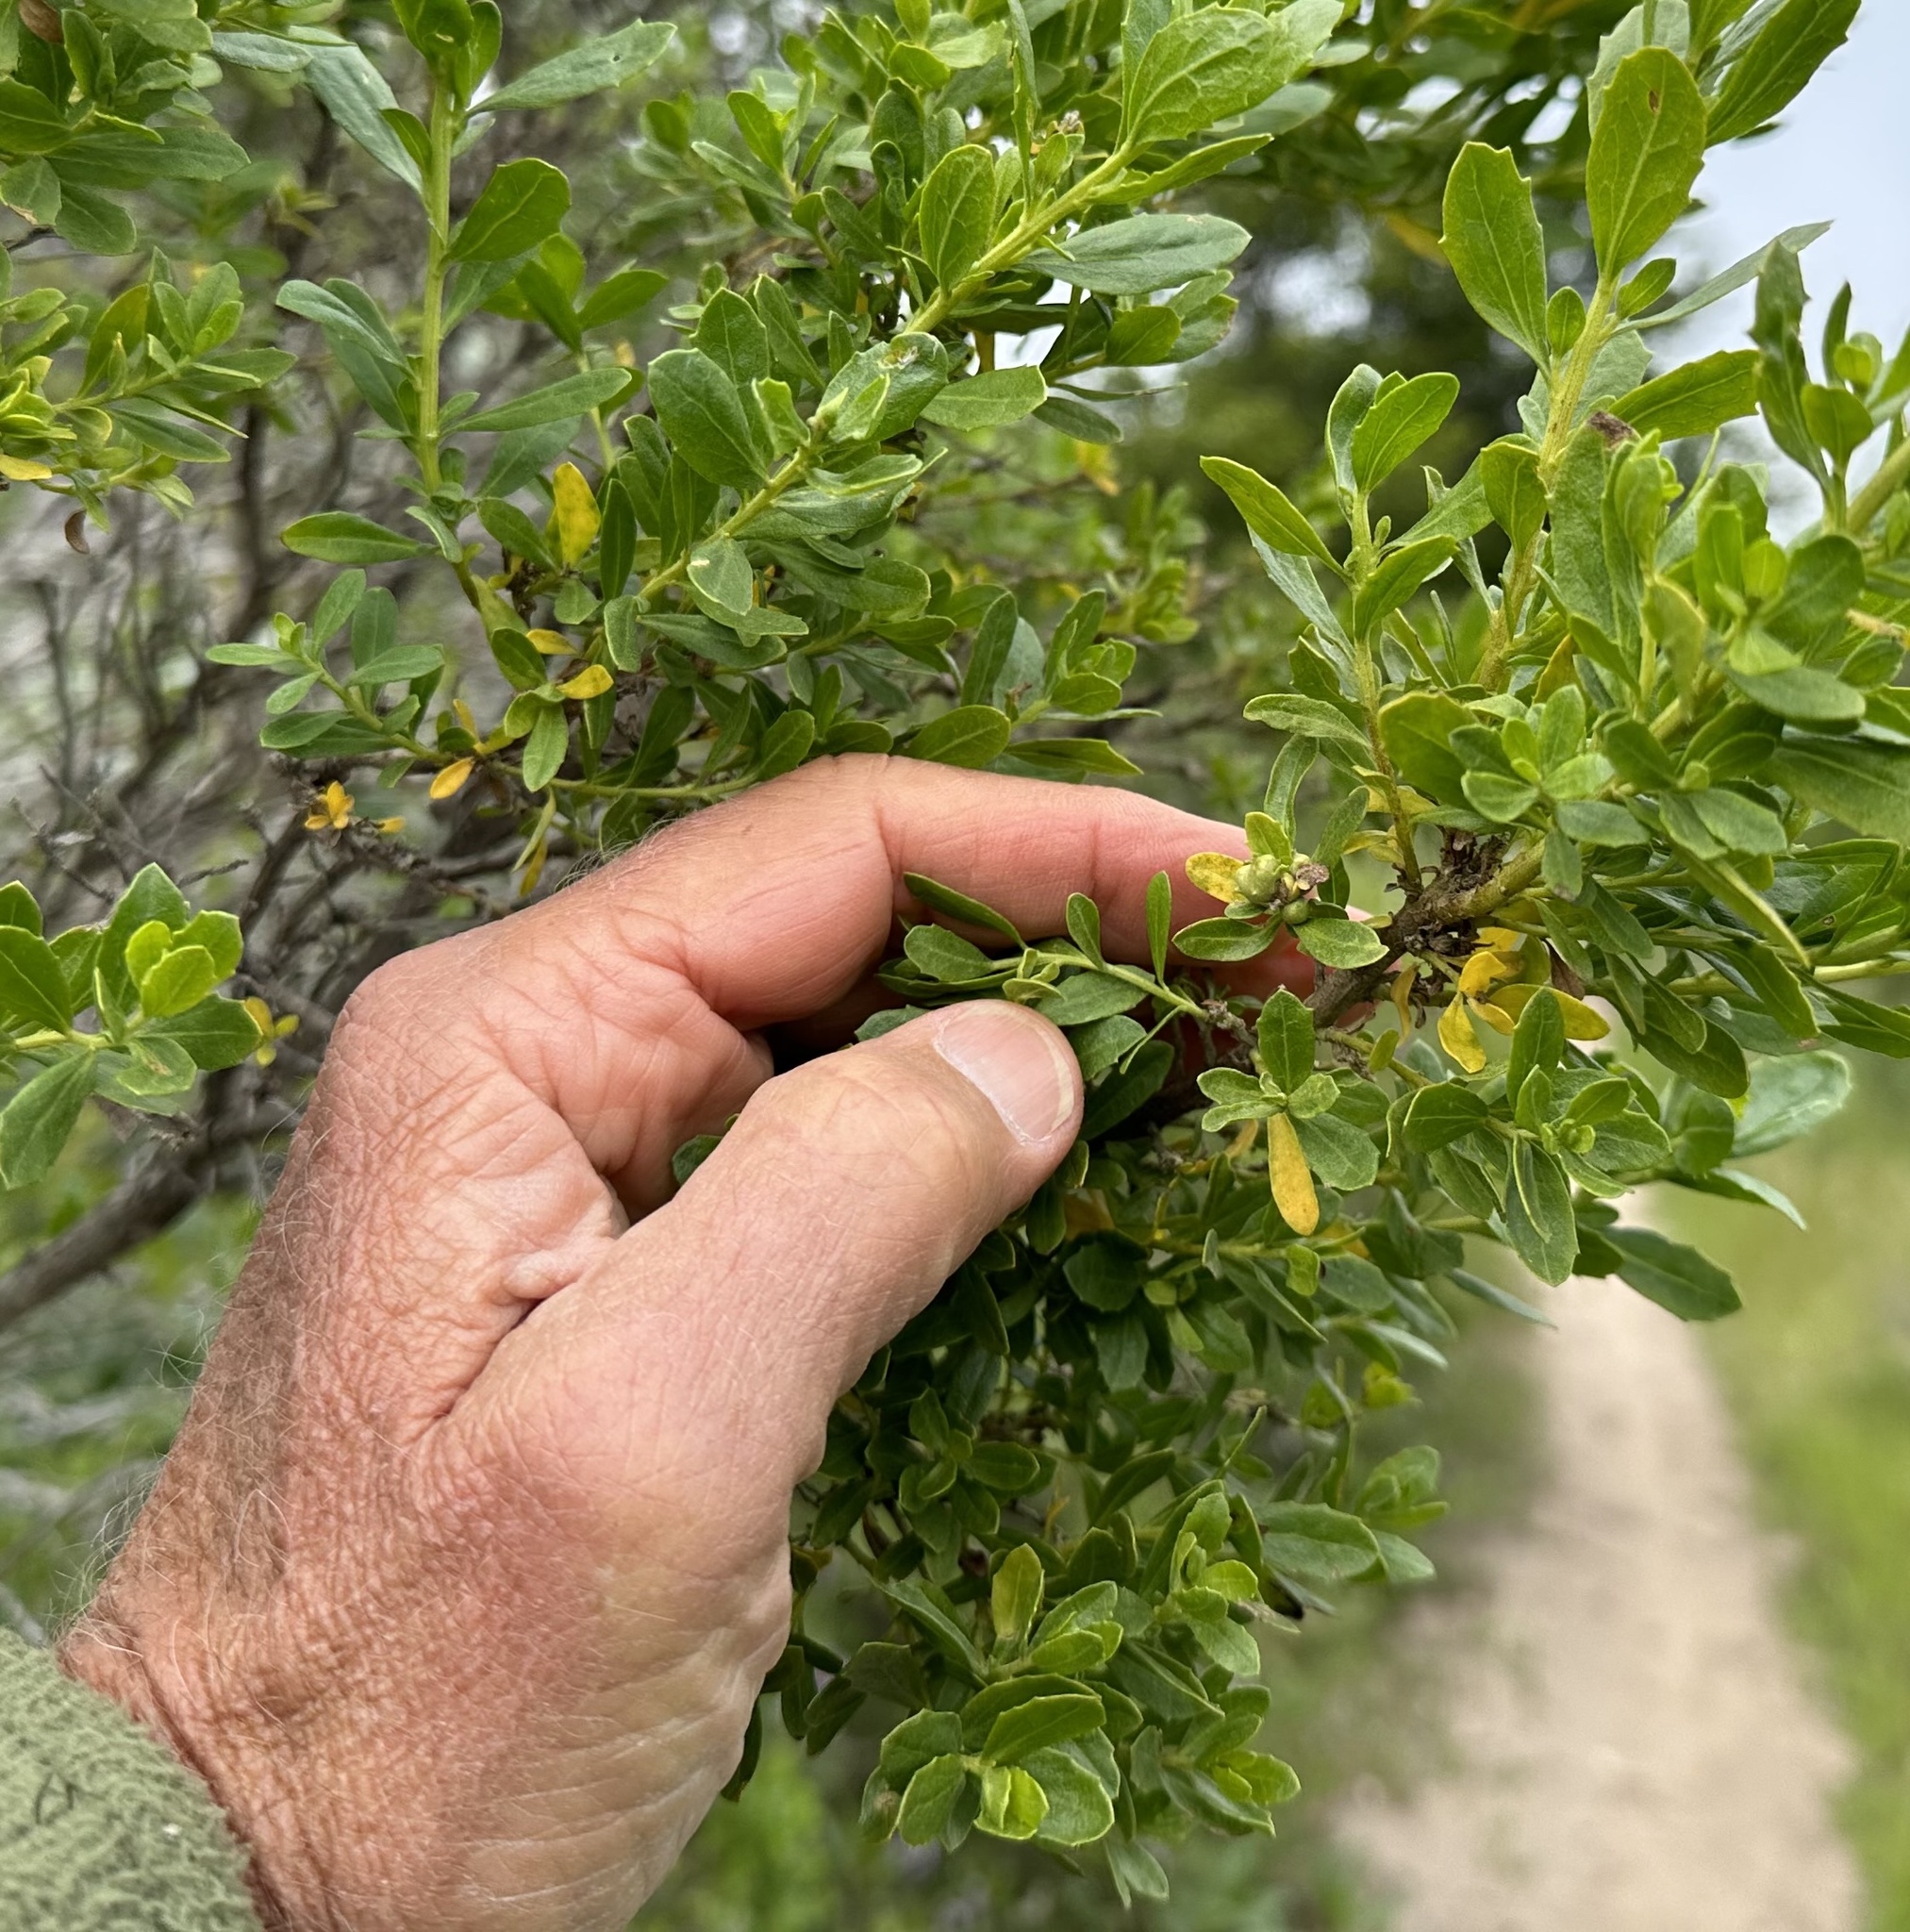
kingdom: Animalia
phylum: Arthropoda
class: Insecta
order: Diptera
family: Cecidomyiidae
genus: Rhopalomyia
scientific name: Rhopalomyia californica
